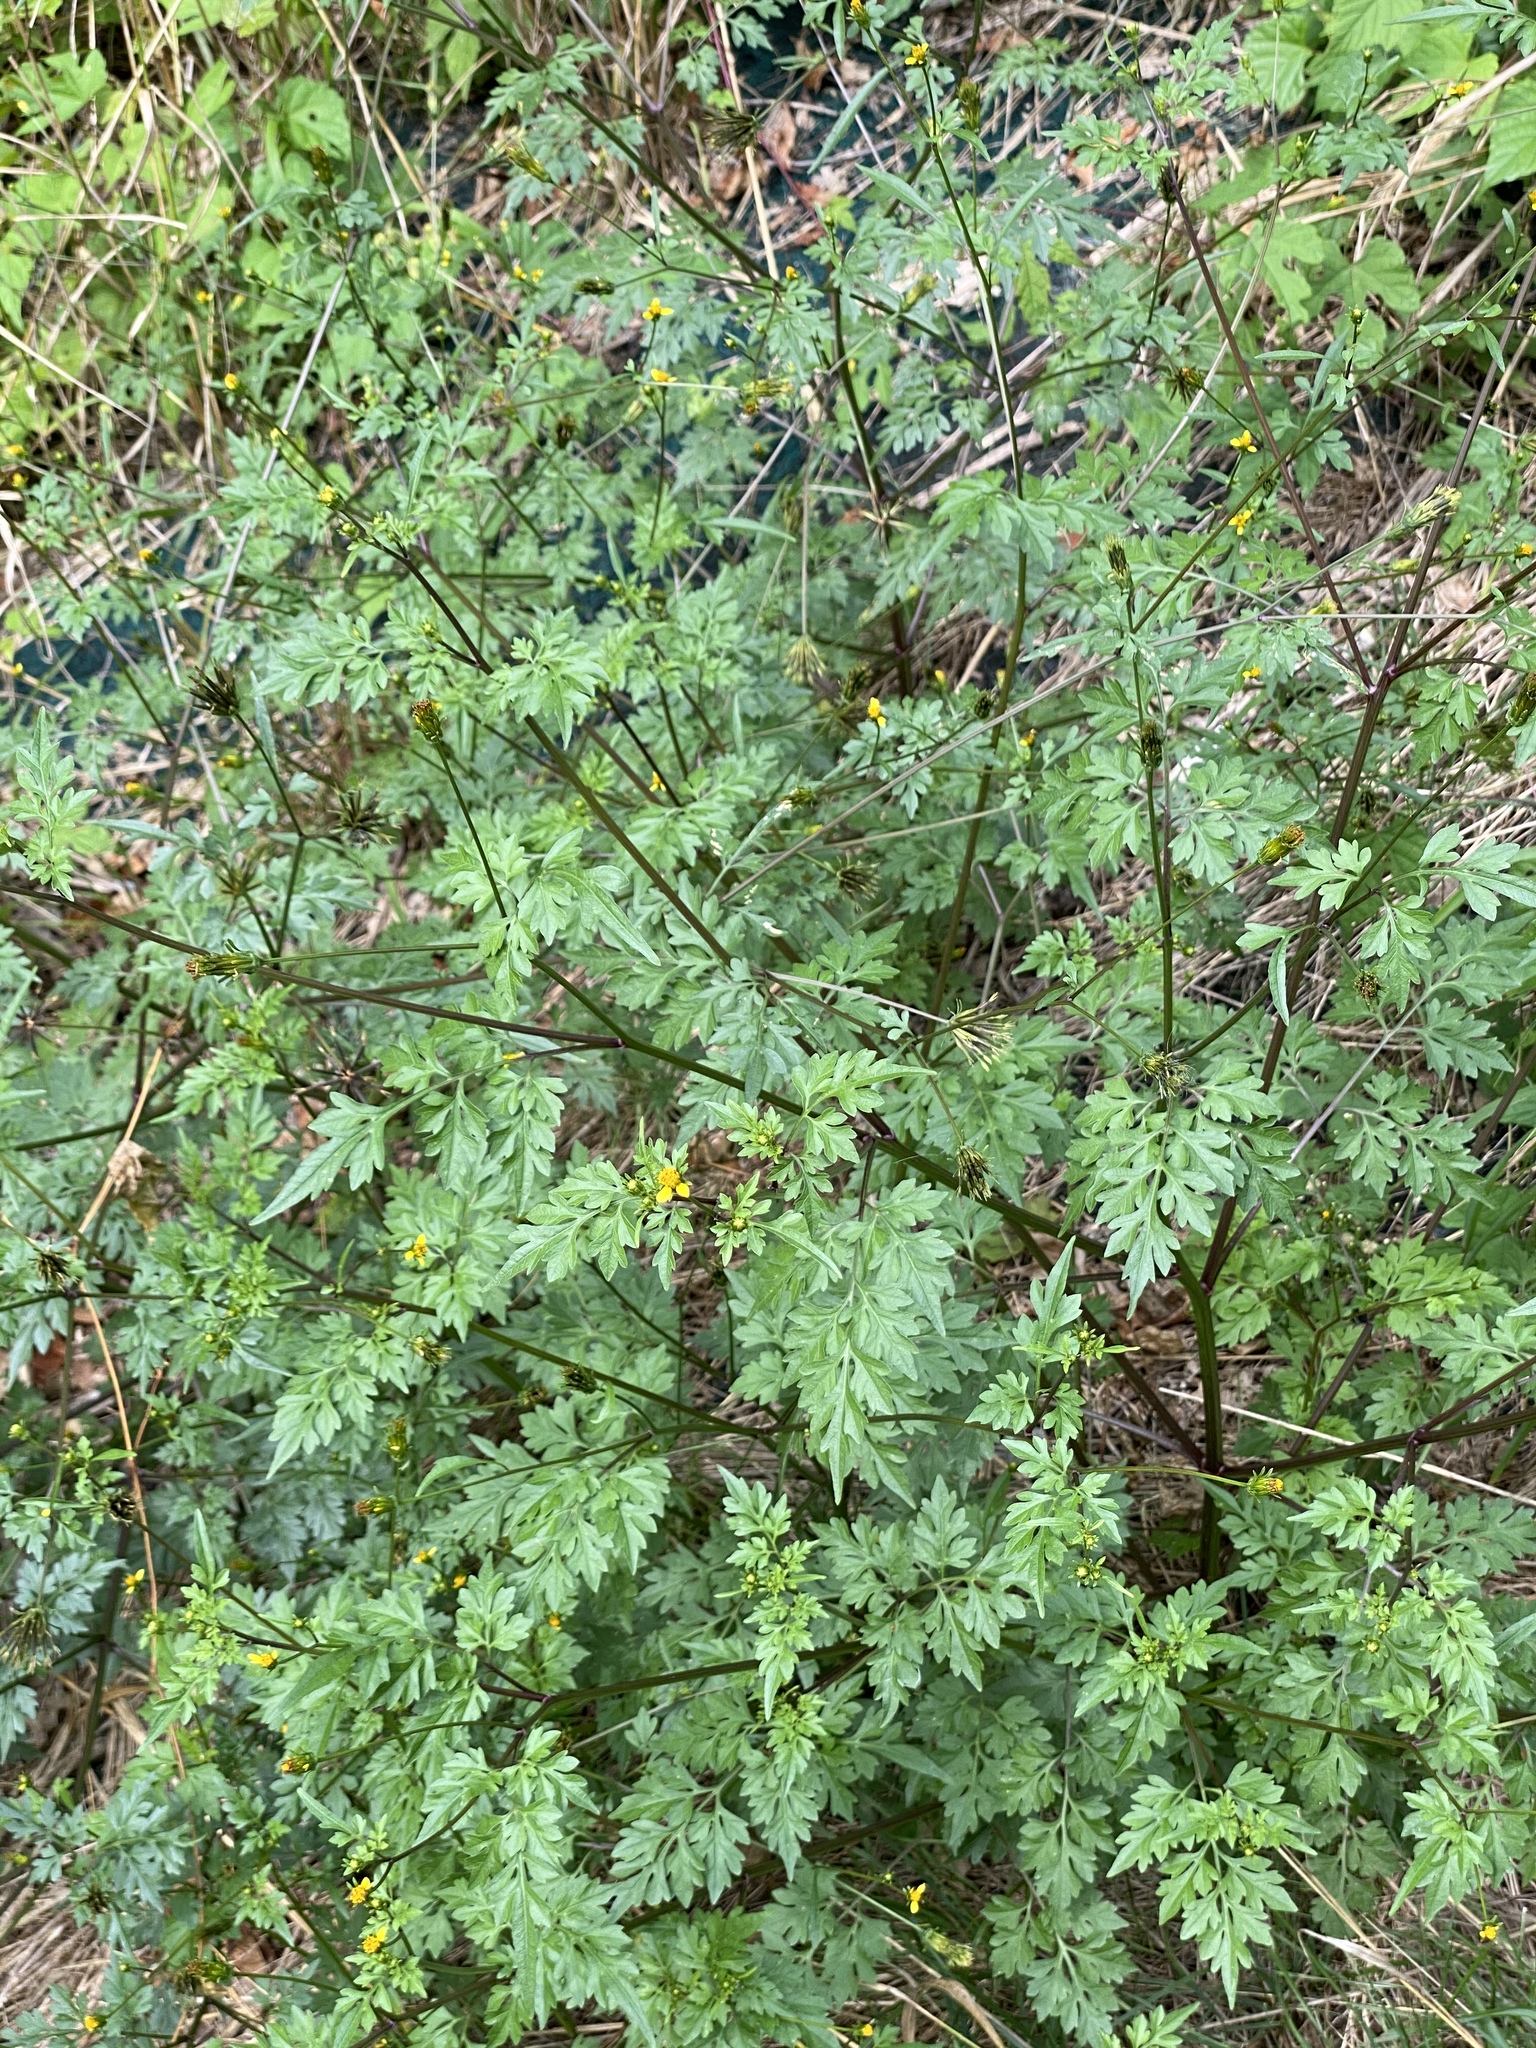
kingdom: Plantae
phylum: Tracheophyta
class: Magnoliopsida
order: Asterales
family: Asteraceae
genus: Bidens
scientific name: Bidens bipinnata
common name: Spanish-needles
